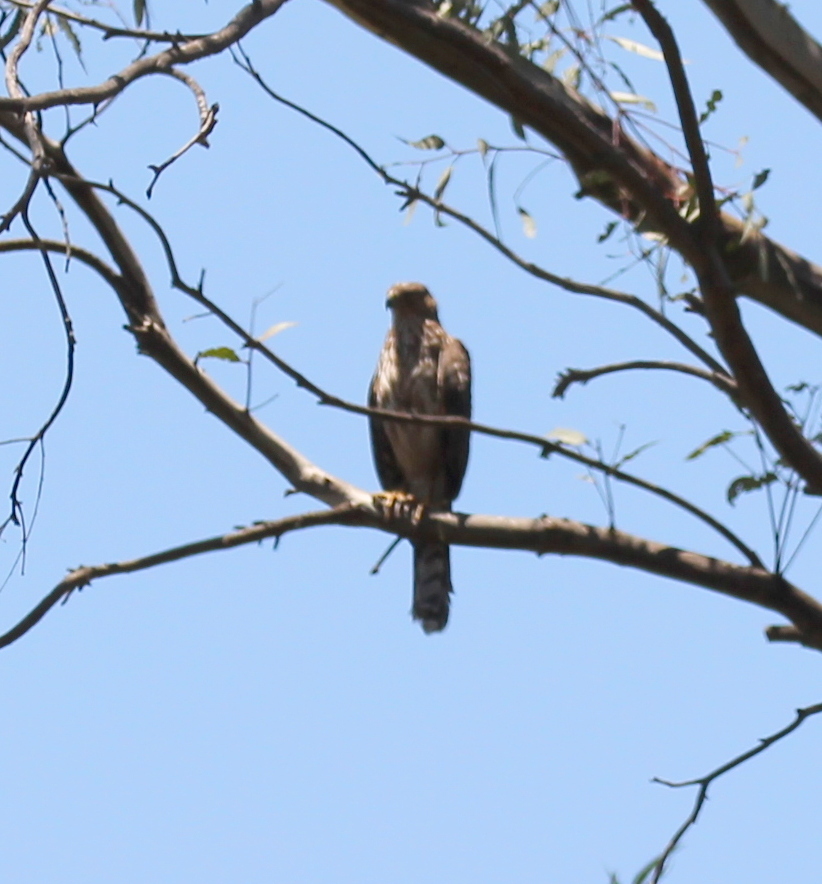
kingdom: Animalia
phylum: Chordata
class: Aves
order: Accipitriformes
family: Accipitridae
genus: Accipiter
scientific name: Accipiter cooperii
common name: Cooper's hawk
